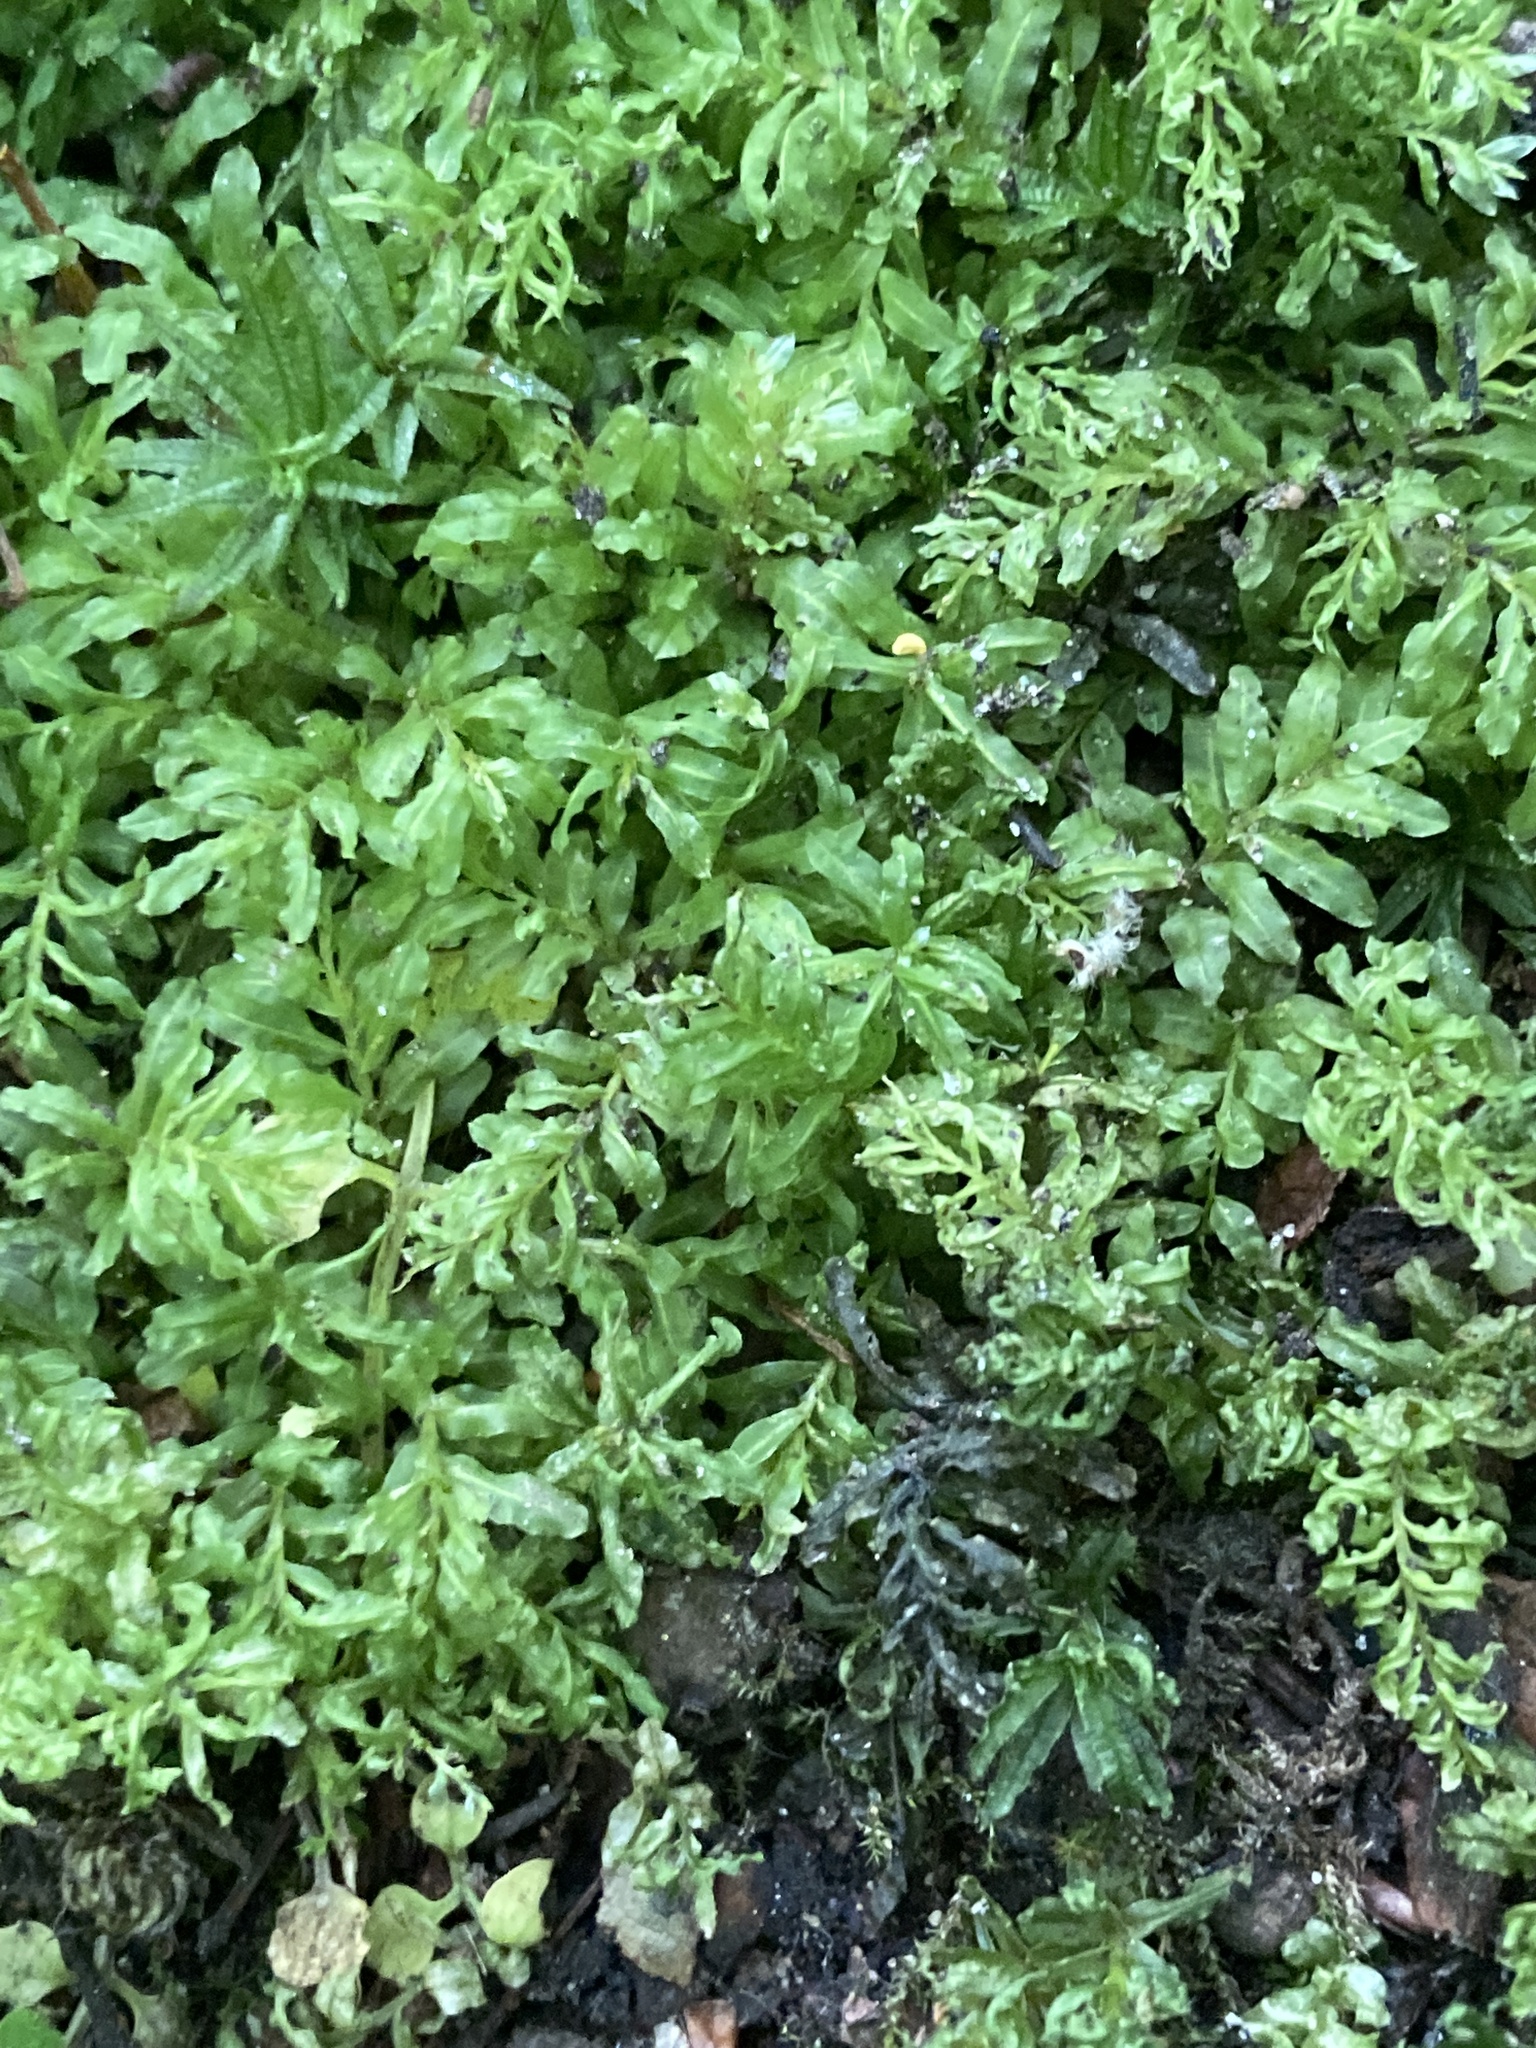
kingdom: Plantae
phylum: Bryophyta
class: Bryopsida
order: Bryales
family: Mniaceae
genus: Plagiomnium
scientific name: Plagiomnium undulatum
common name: Hart's-tongue thyme-moss
